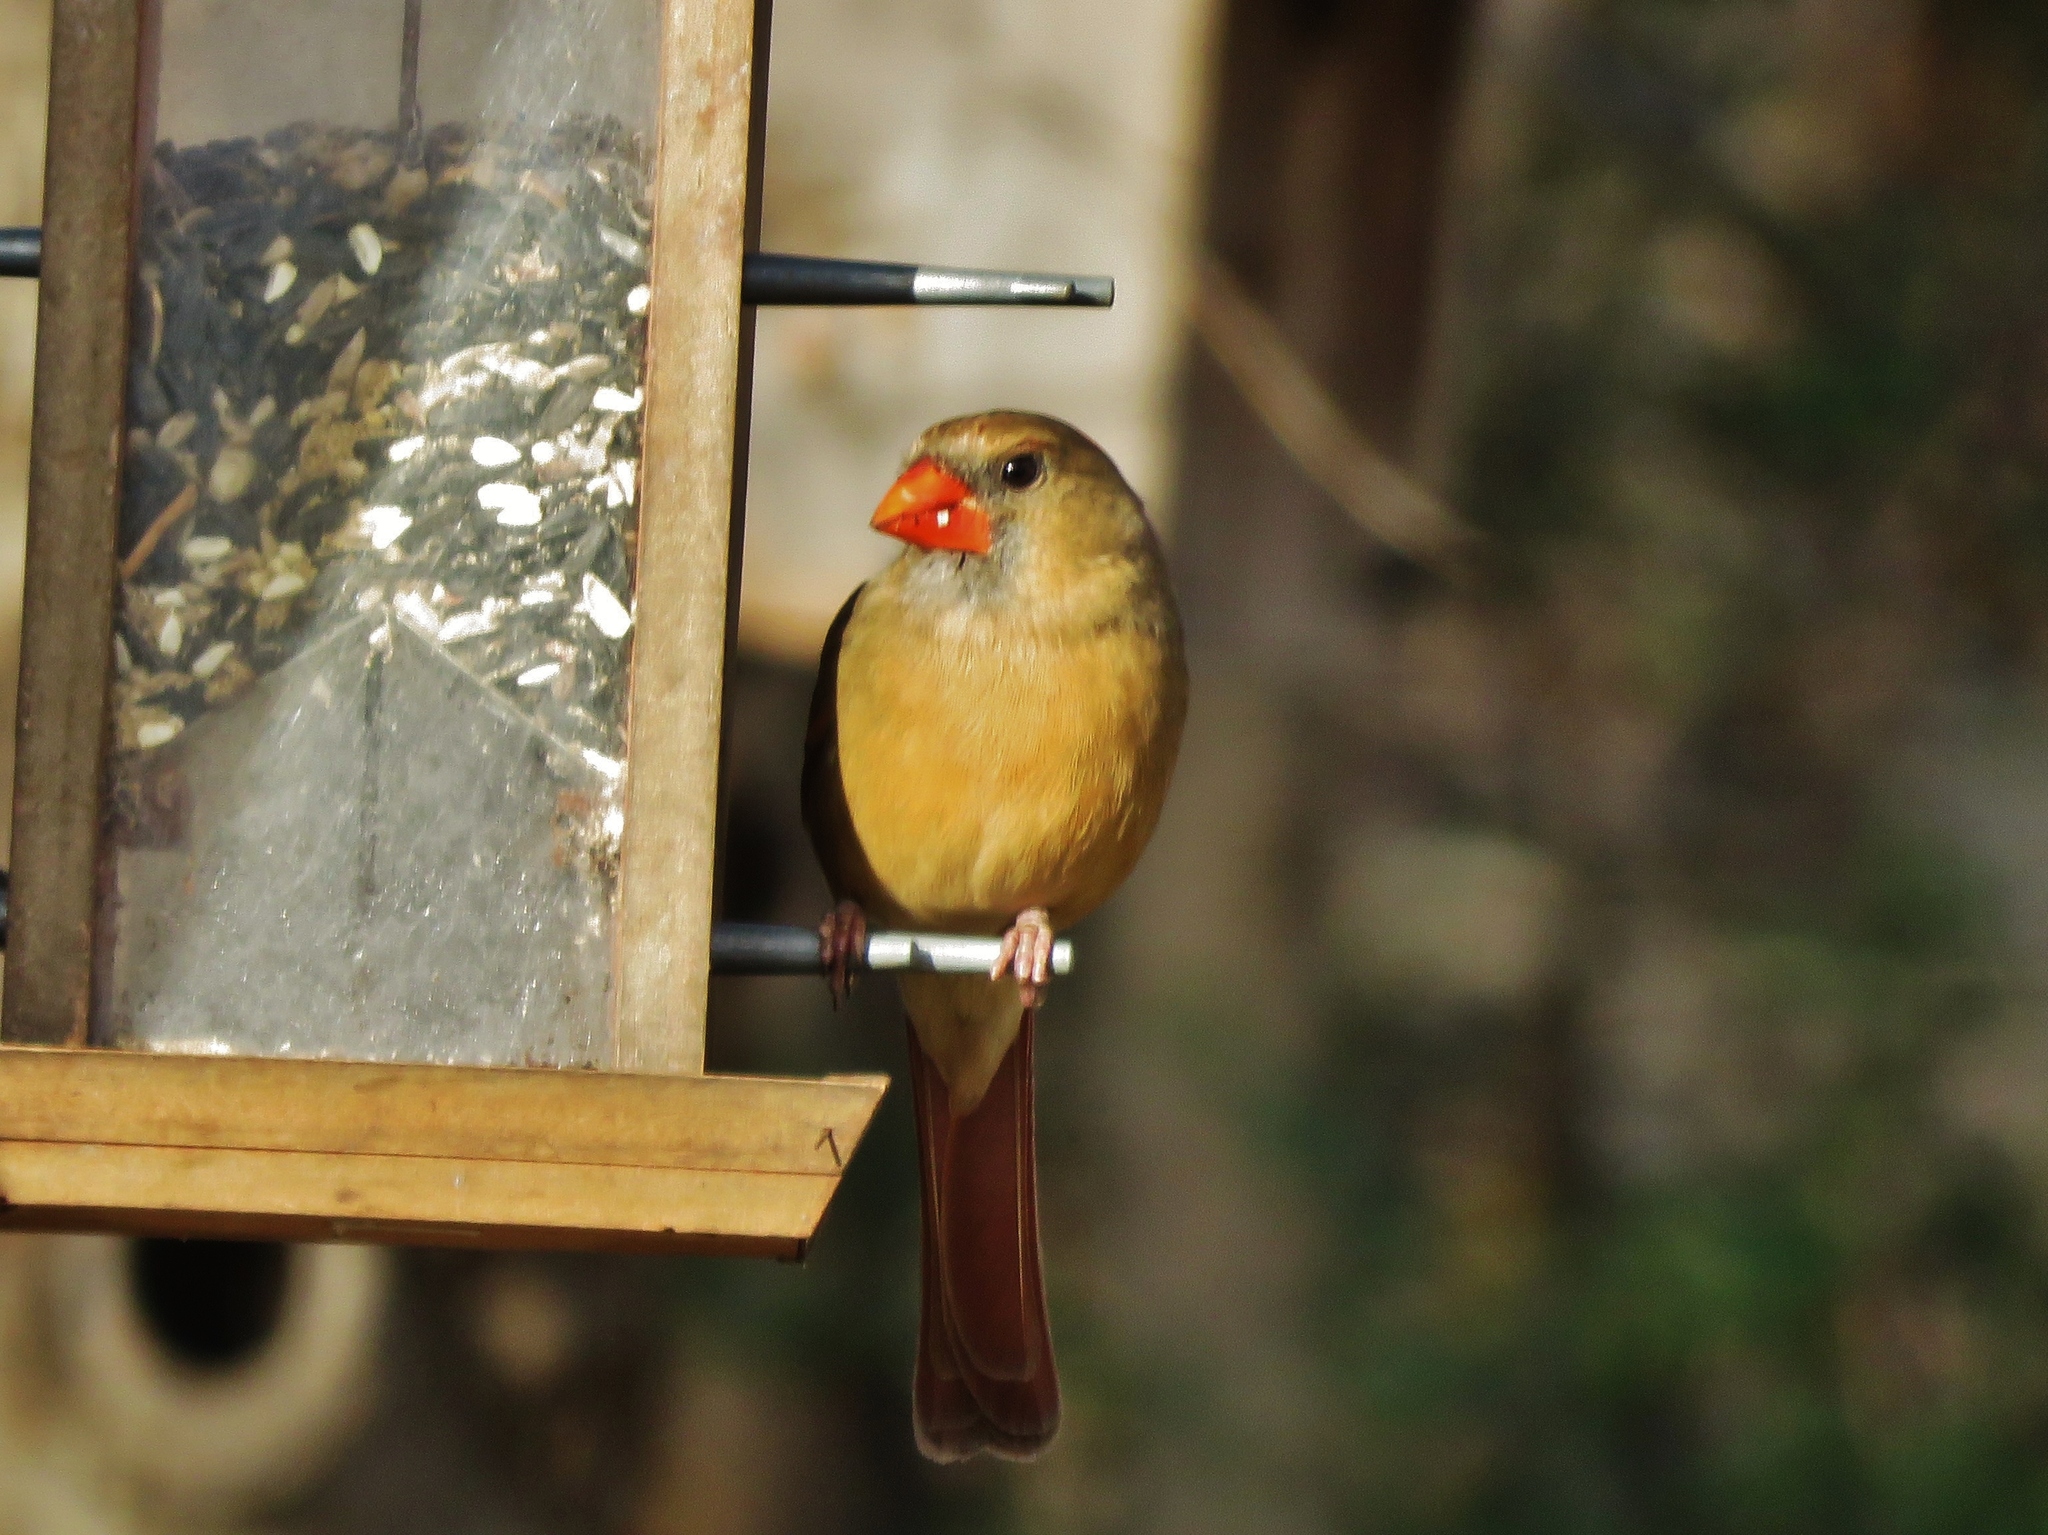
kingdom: Animalia
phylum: Chordata
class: Aves
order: Passeriformes
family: Cardinalidae
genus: Cardinalis
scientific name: Cardinalis cardinalis
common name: Northern cardinal
